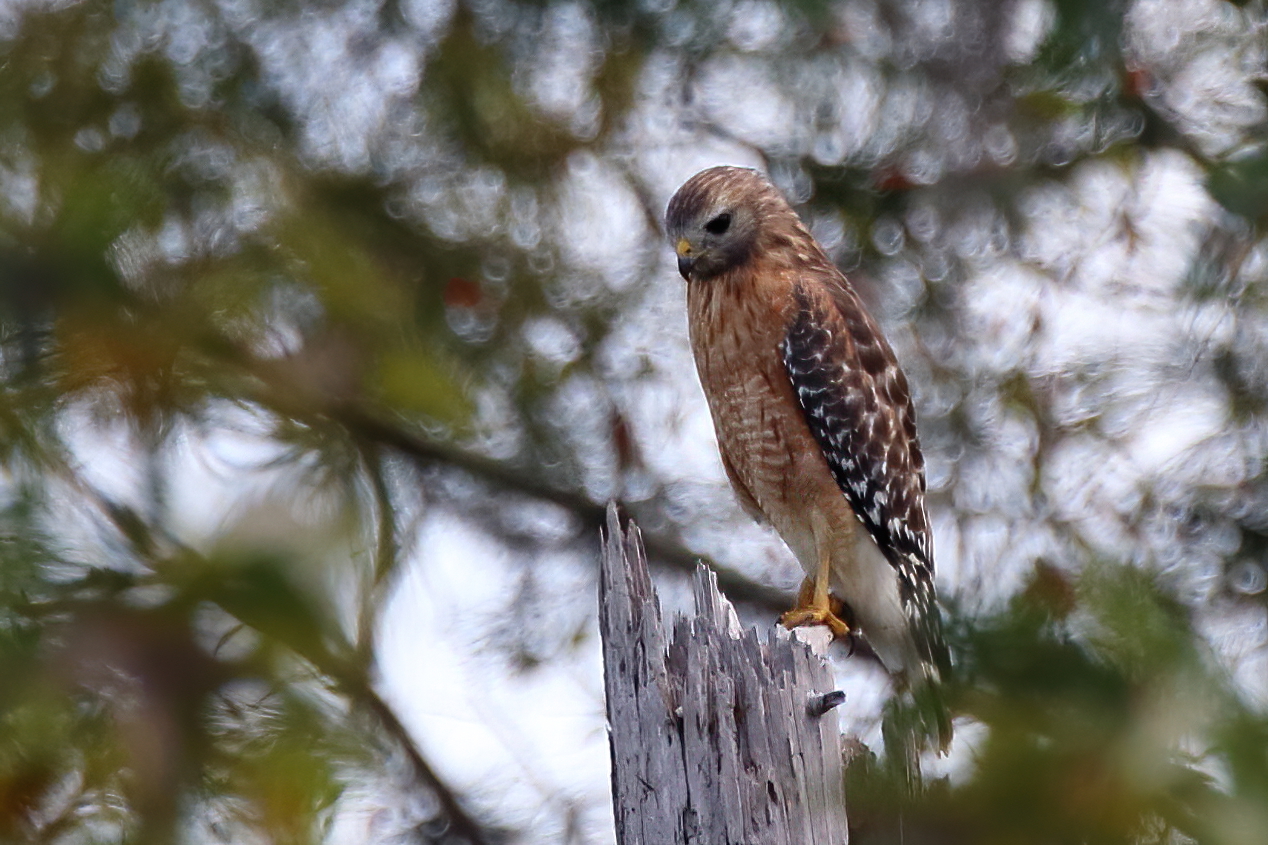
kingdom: Animalia
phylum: Chordata
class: Aves
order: Accipitriformes
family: Accipitridae
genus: Buteo
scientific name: Buteo lineatus
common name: Red-shouldered hawk
